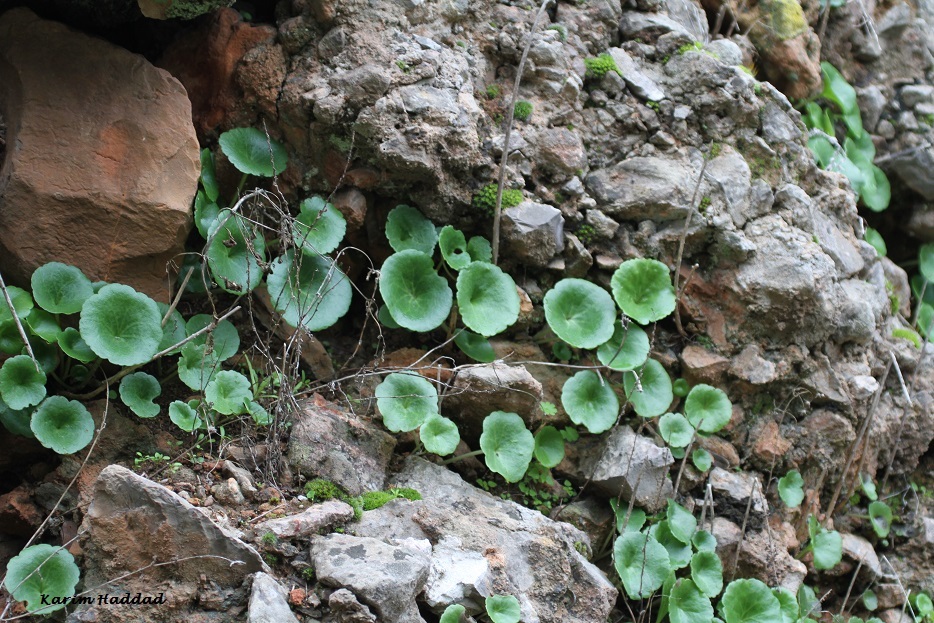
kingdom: Plantae
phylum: Tracheophyta
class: Magnoliopsida
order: Saxifragales
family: Crassulaceae
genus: Umbilicus
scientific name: Umbilicus rupestris
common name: Navelwort
